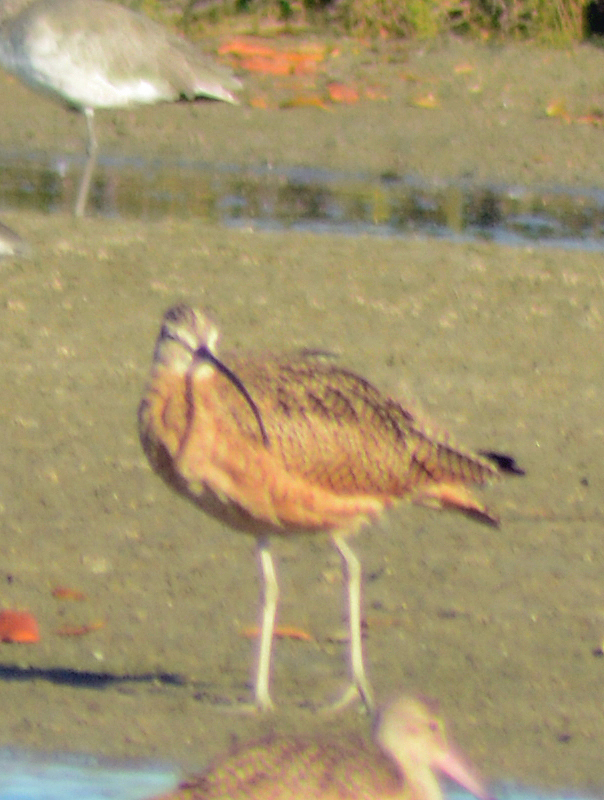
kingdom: Animalia
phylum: Chordata
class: Aves
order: Charadriiformes
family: Scolopacidae
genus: Numenius
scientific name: Numenius americanus
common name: Long-billed curlew
